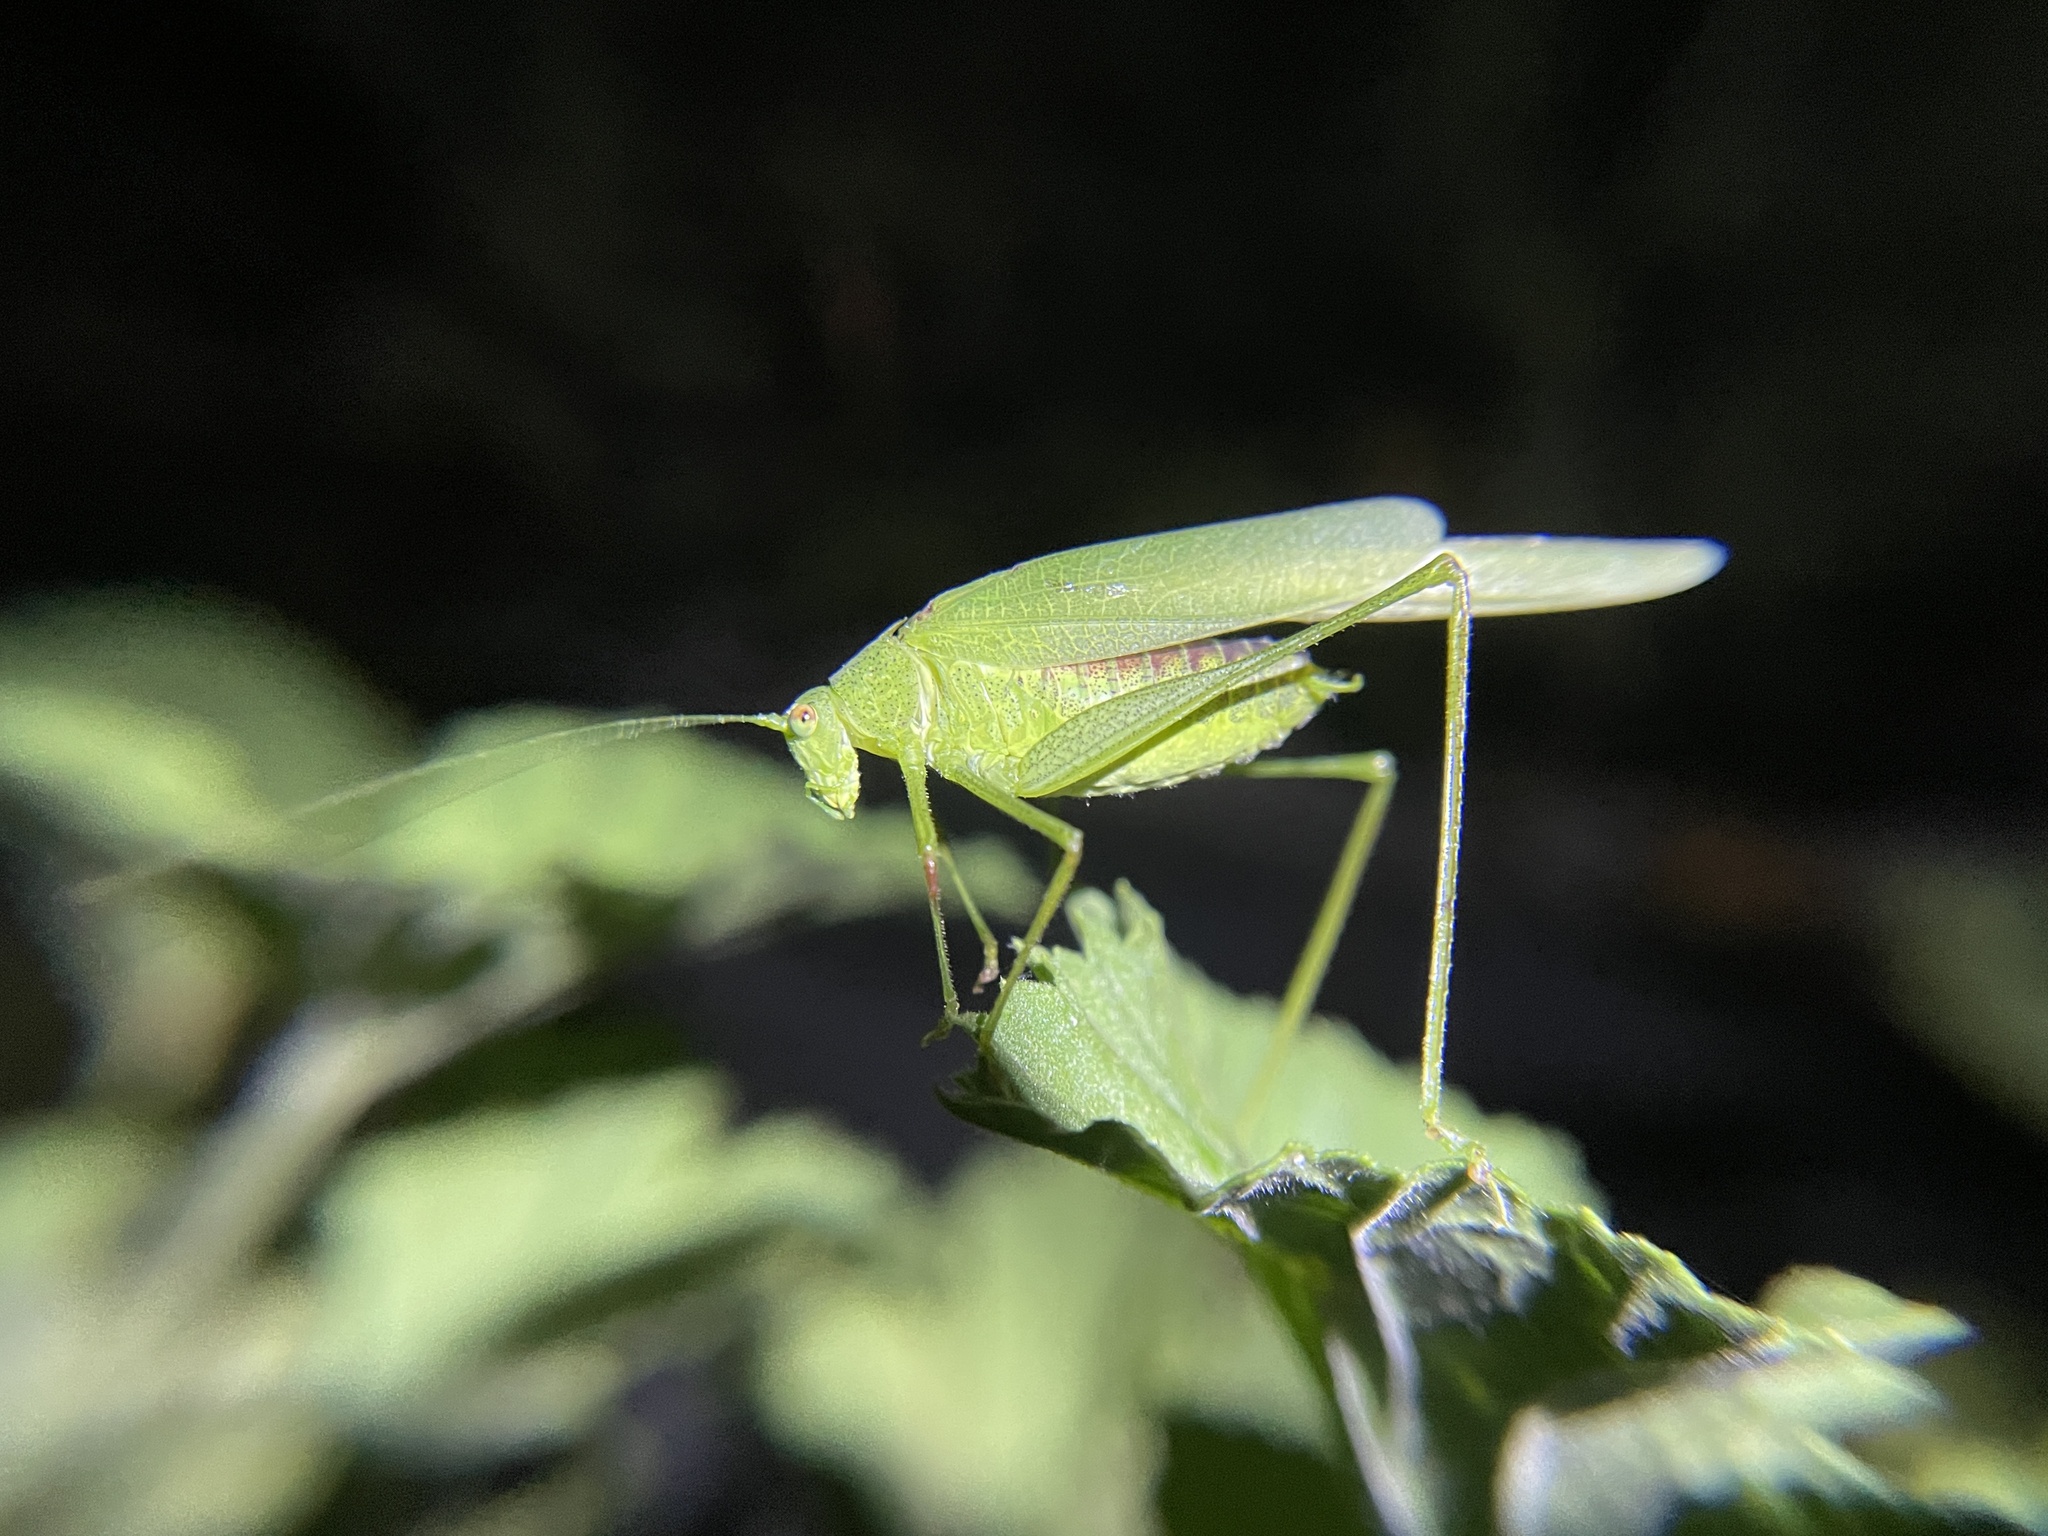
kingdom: Animalia
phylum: Arthropoda
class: Insecta
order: Orthoptera
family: Tettigoniidae
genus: Phaneroptera
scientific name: Phaneroptera nana
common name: Southern sickle bush-cricket
